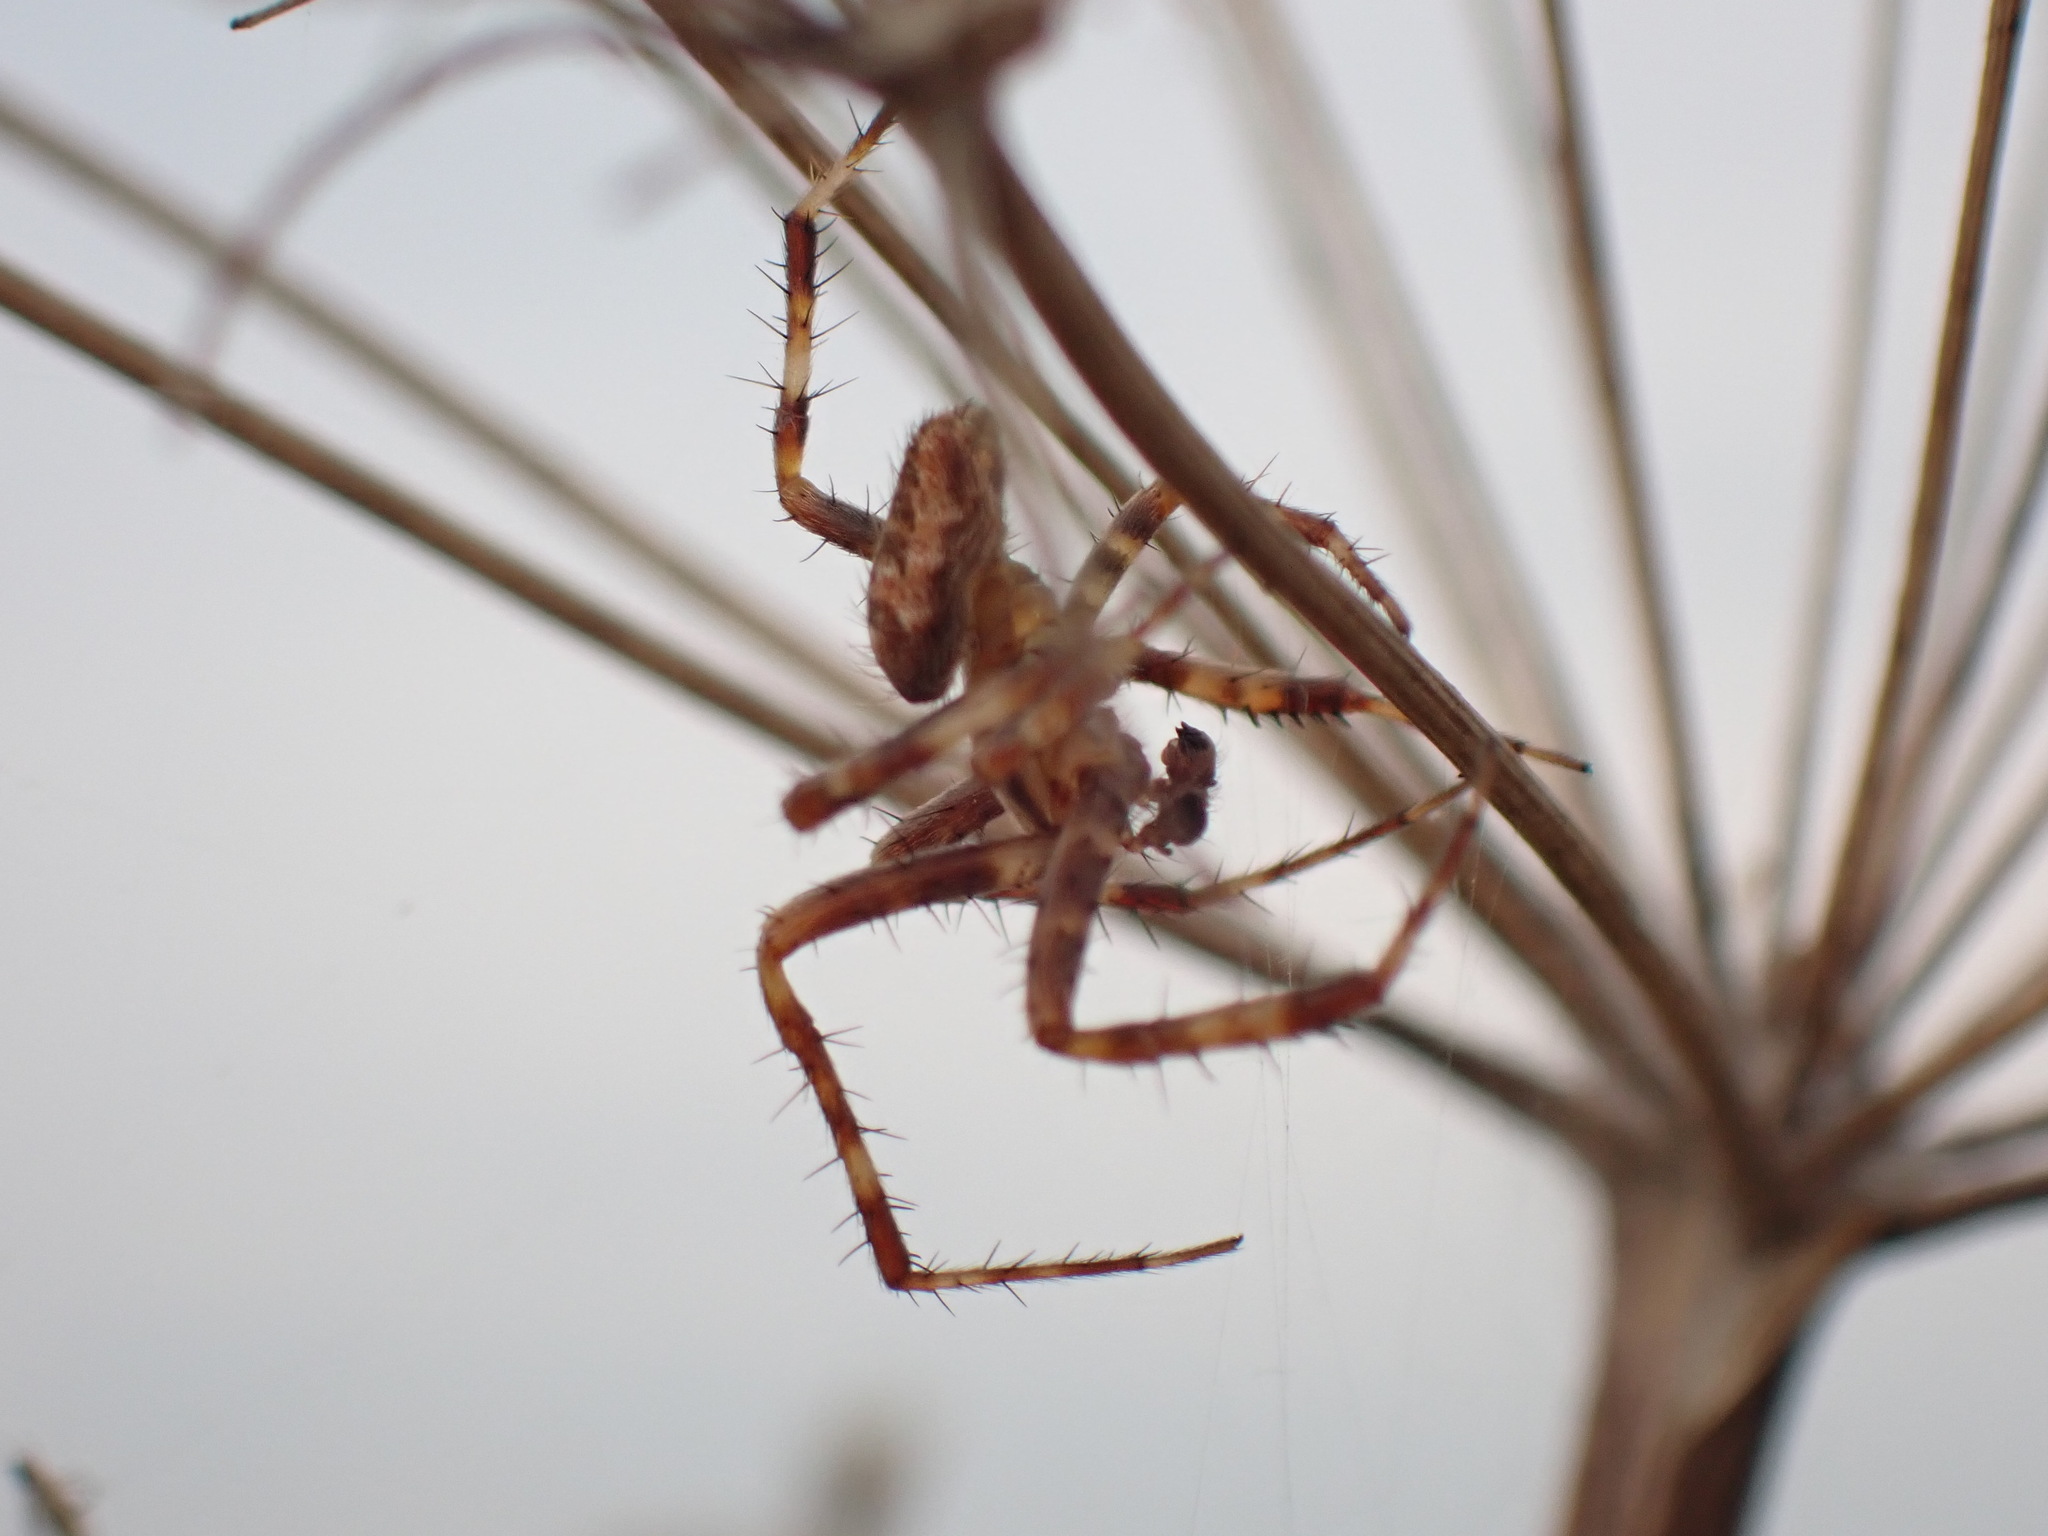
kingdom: Animalia
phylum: Arthropoda
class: Arachnida
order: Araneae
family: Araneidae
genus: Araneus
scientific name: Araneus diadematus
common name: Cross orbweaver
